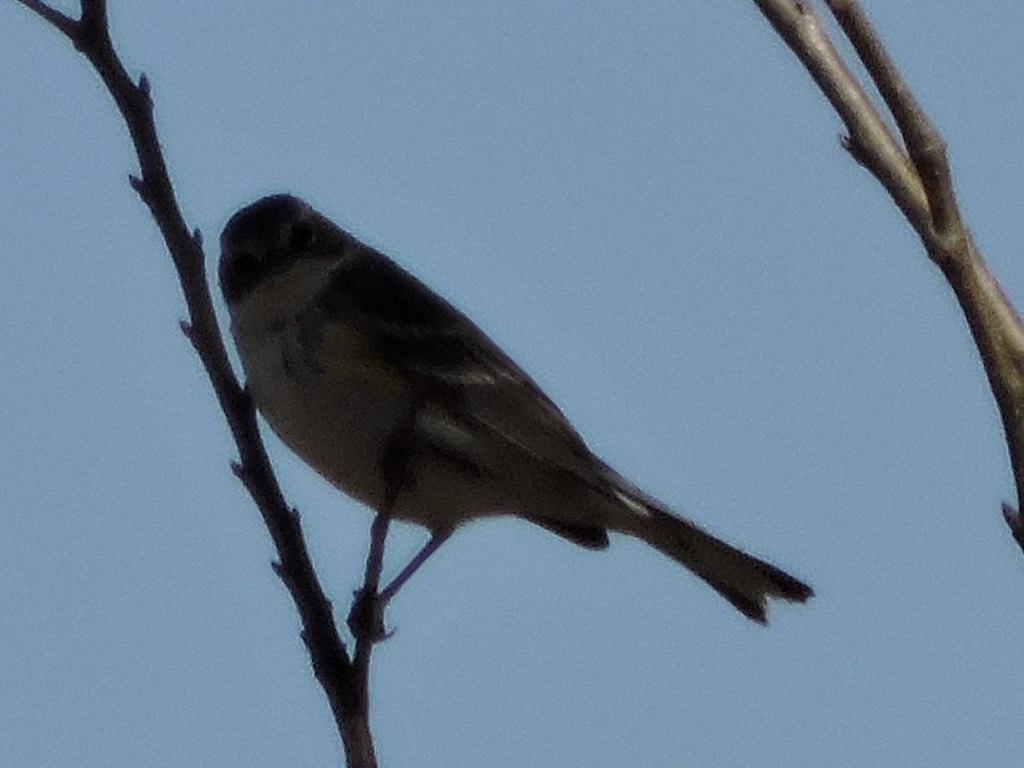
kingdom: Animalia
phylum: Chordata
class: Aves
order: Passeriformes
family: Parulidae
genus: Setophaga
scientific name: Setophaga coronata
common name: Myrtle warbler
